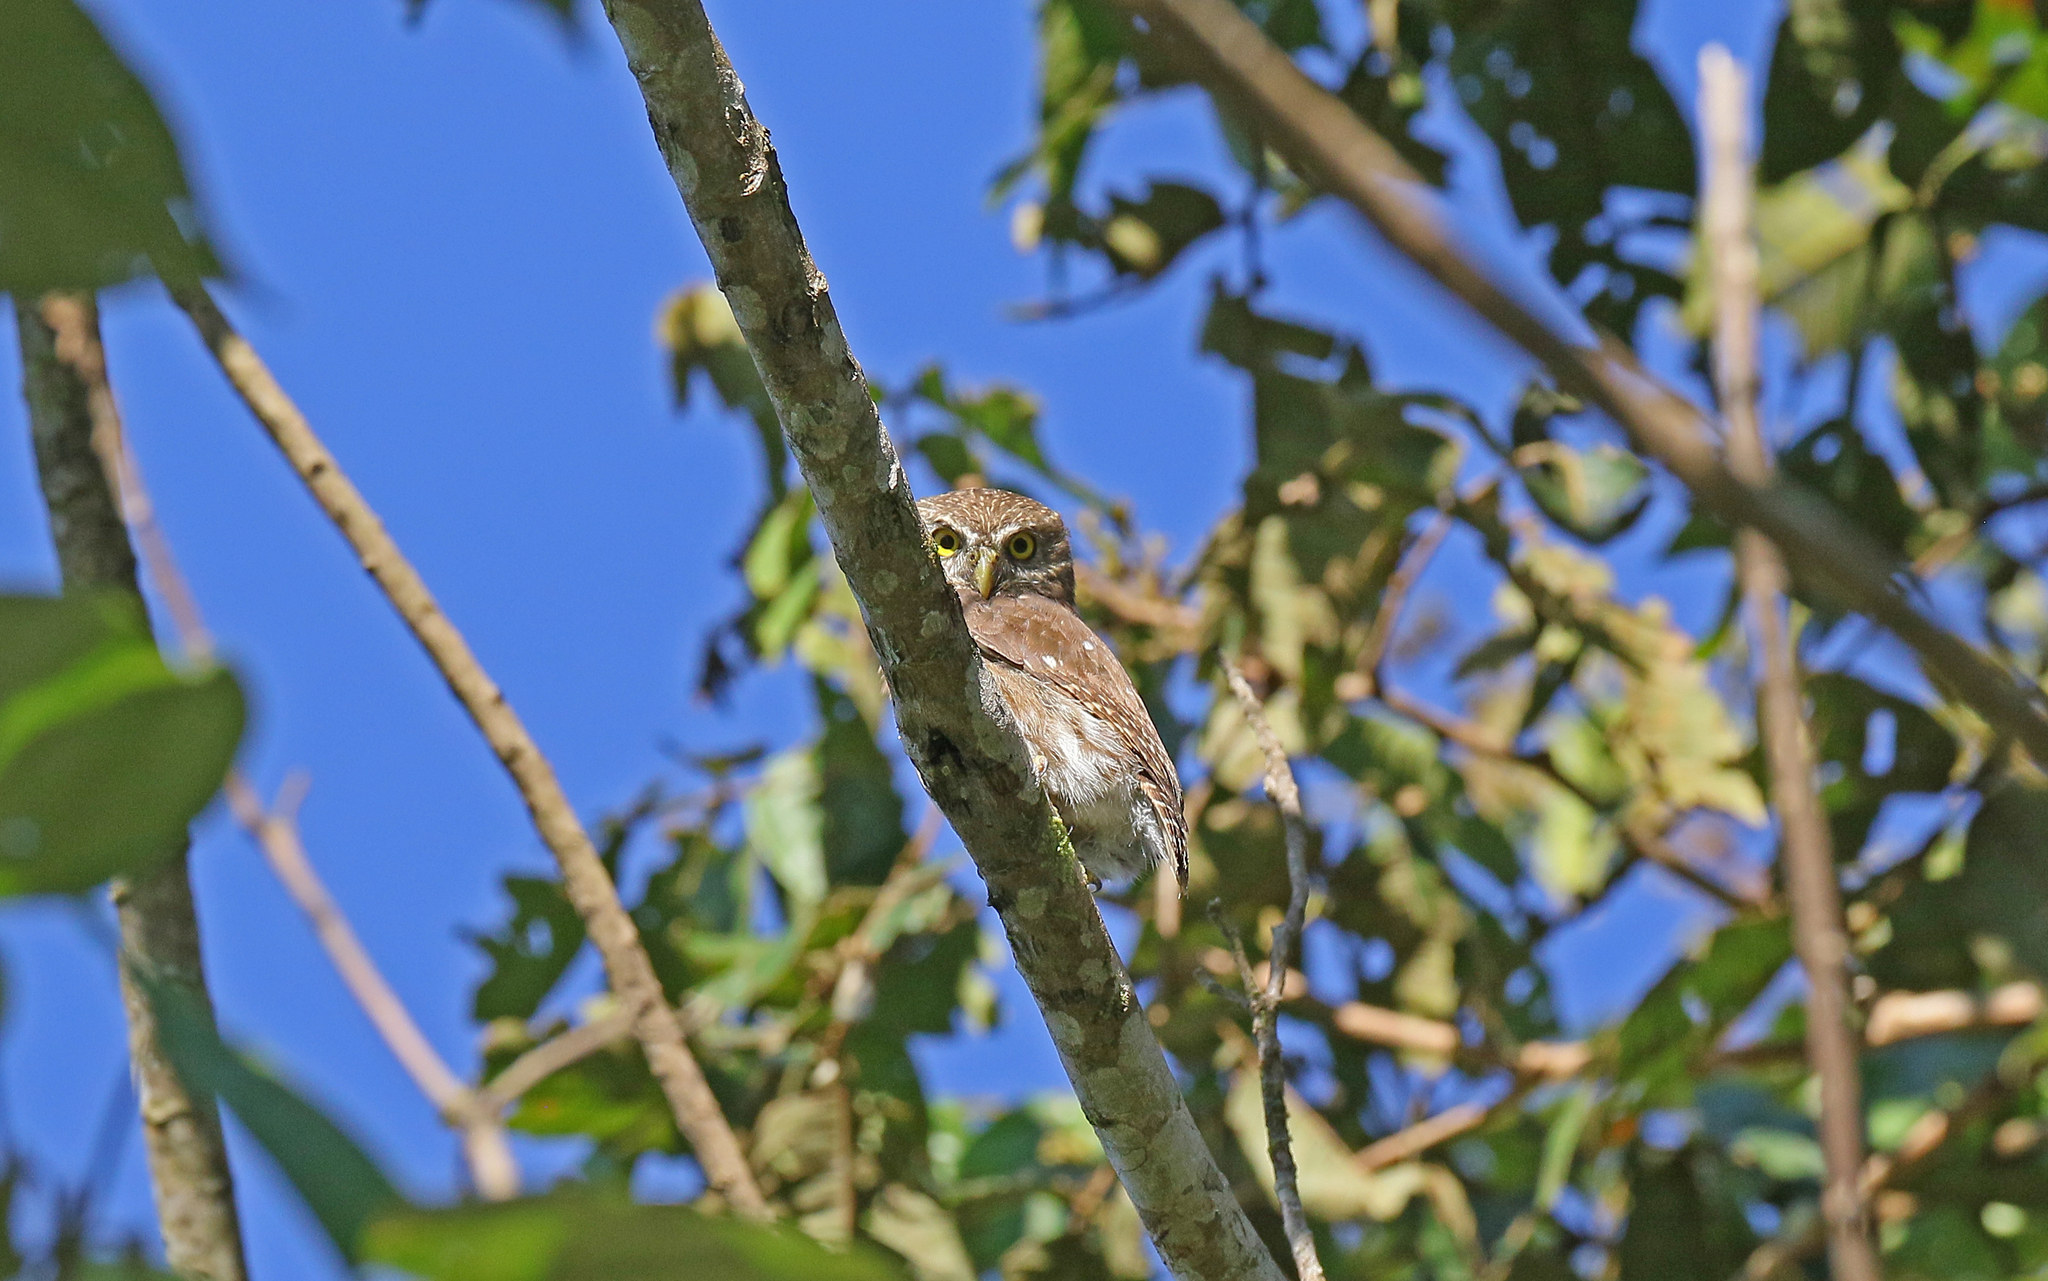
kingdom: Animalia
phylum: Chordata
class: Aves
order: Strigiformes
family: Strigidae
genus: Glaucidium
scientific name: Glaucidium brasilianum
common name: Ferruginous pygmy-owl
